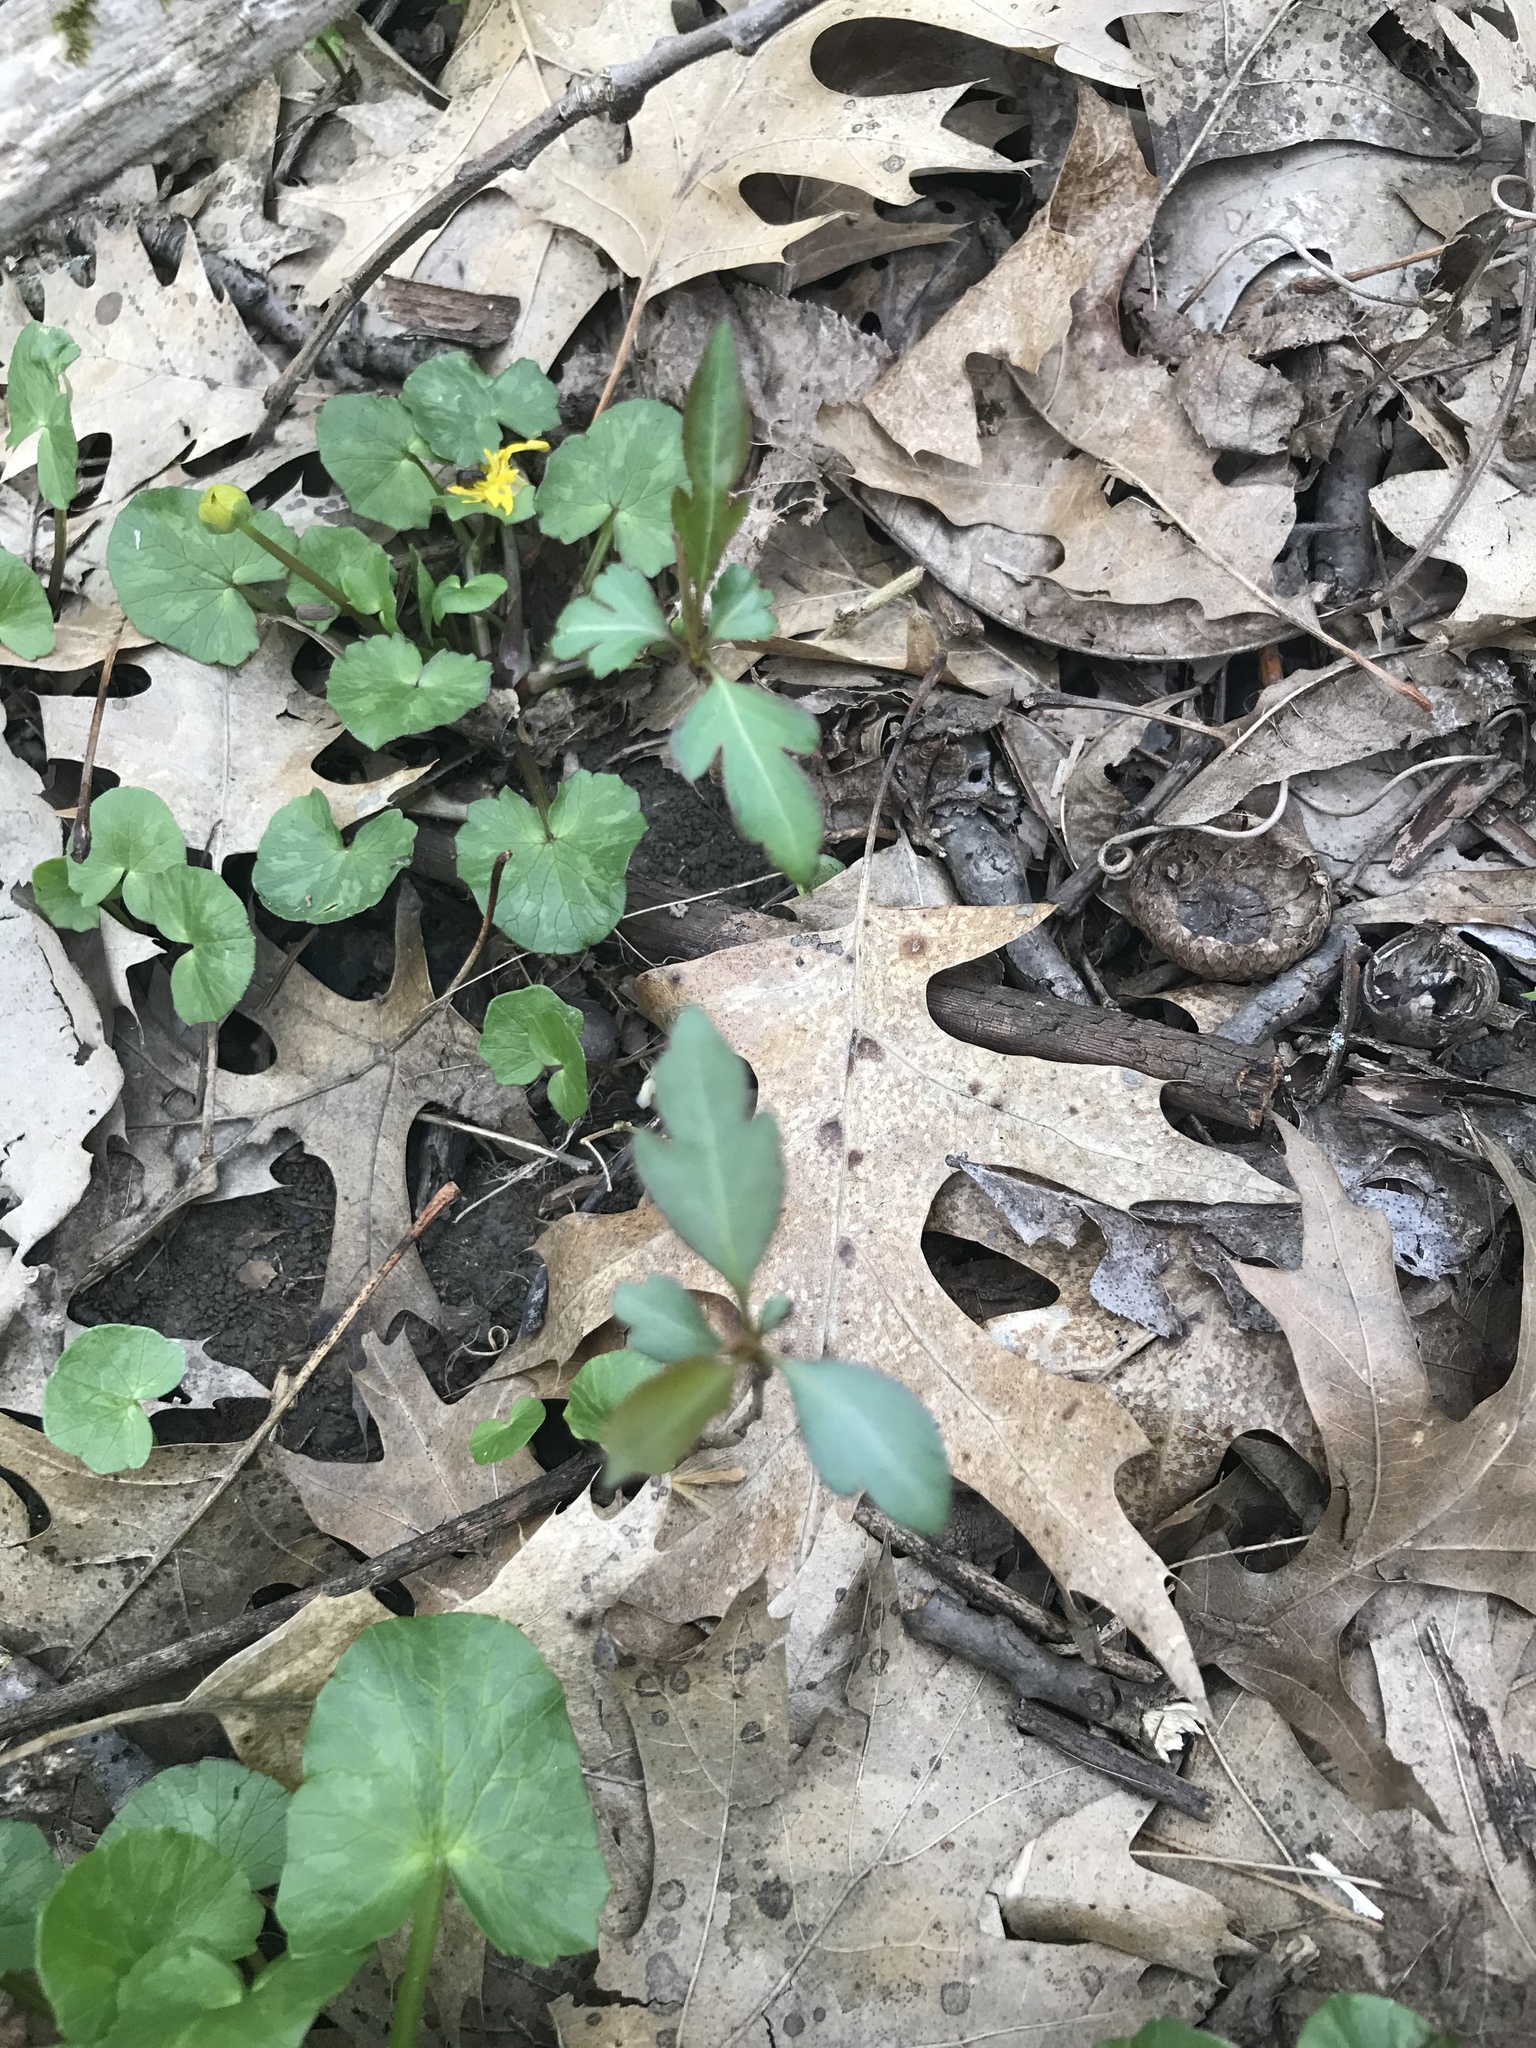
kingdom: Plantae
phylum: Tracheophyta
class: Magnoliopsida
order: Dipsacales
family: Caprifoliaceae
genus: Lonicera
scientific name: Lonicera japonica
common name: Japanese honeysuckle
